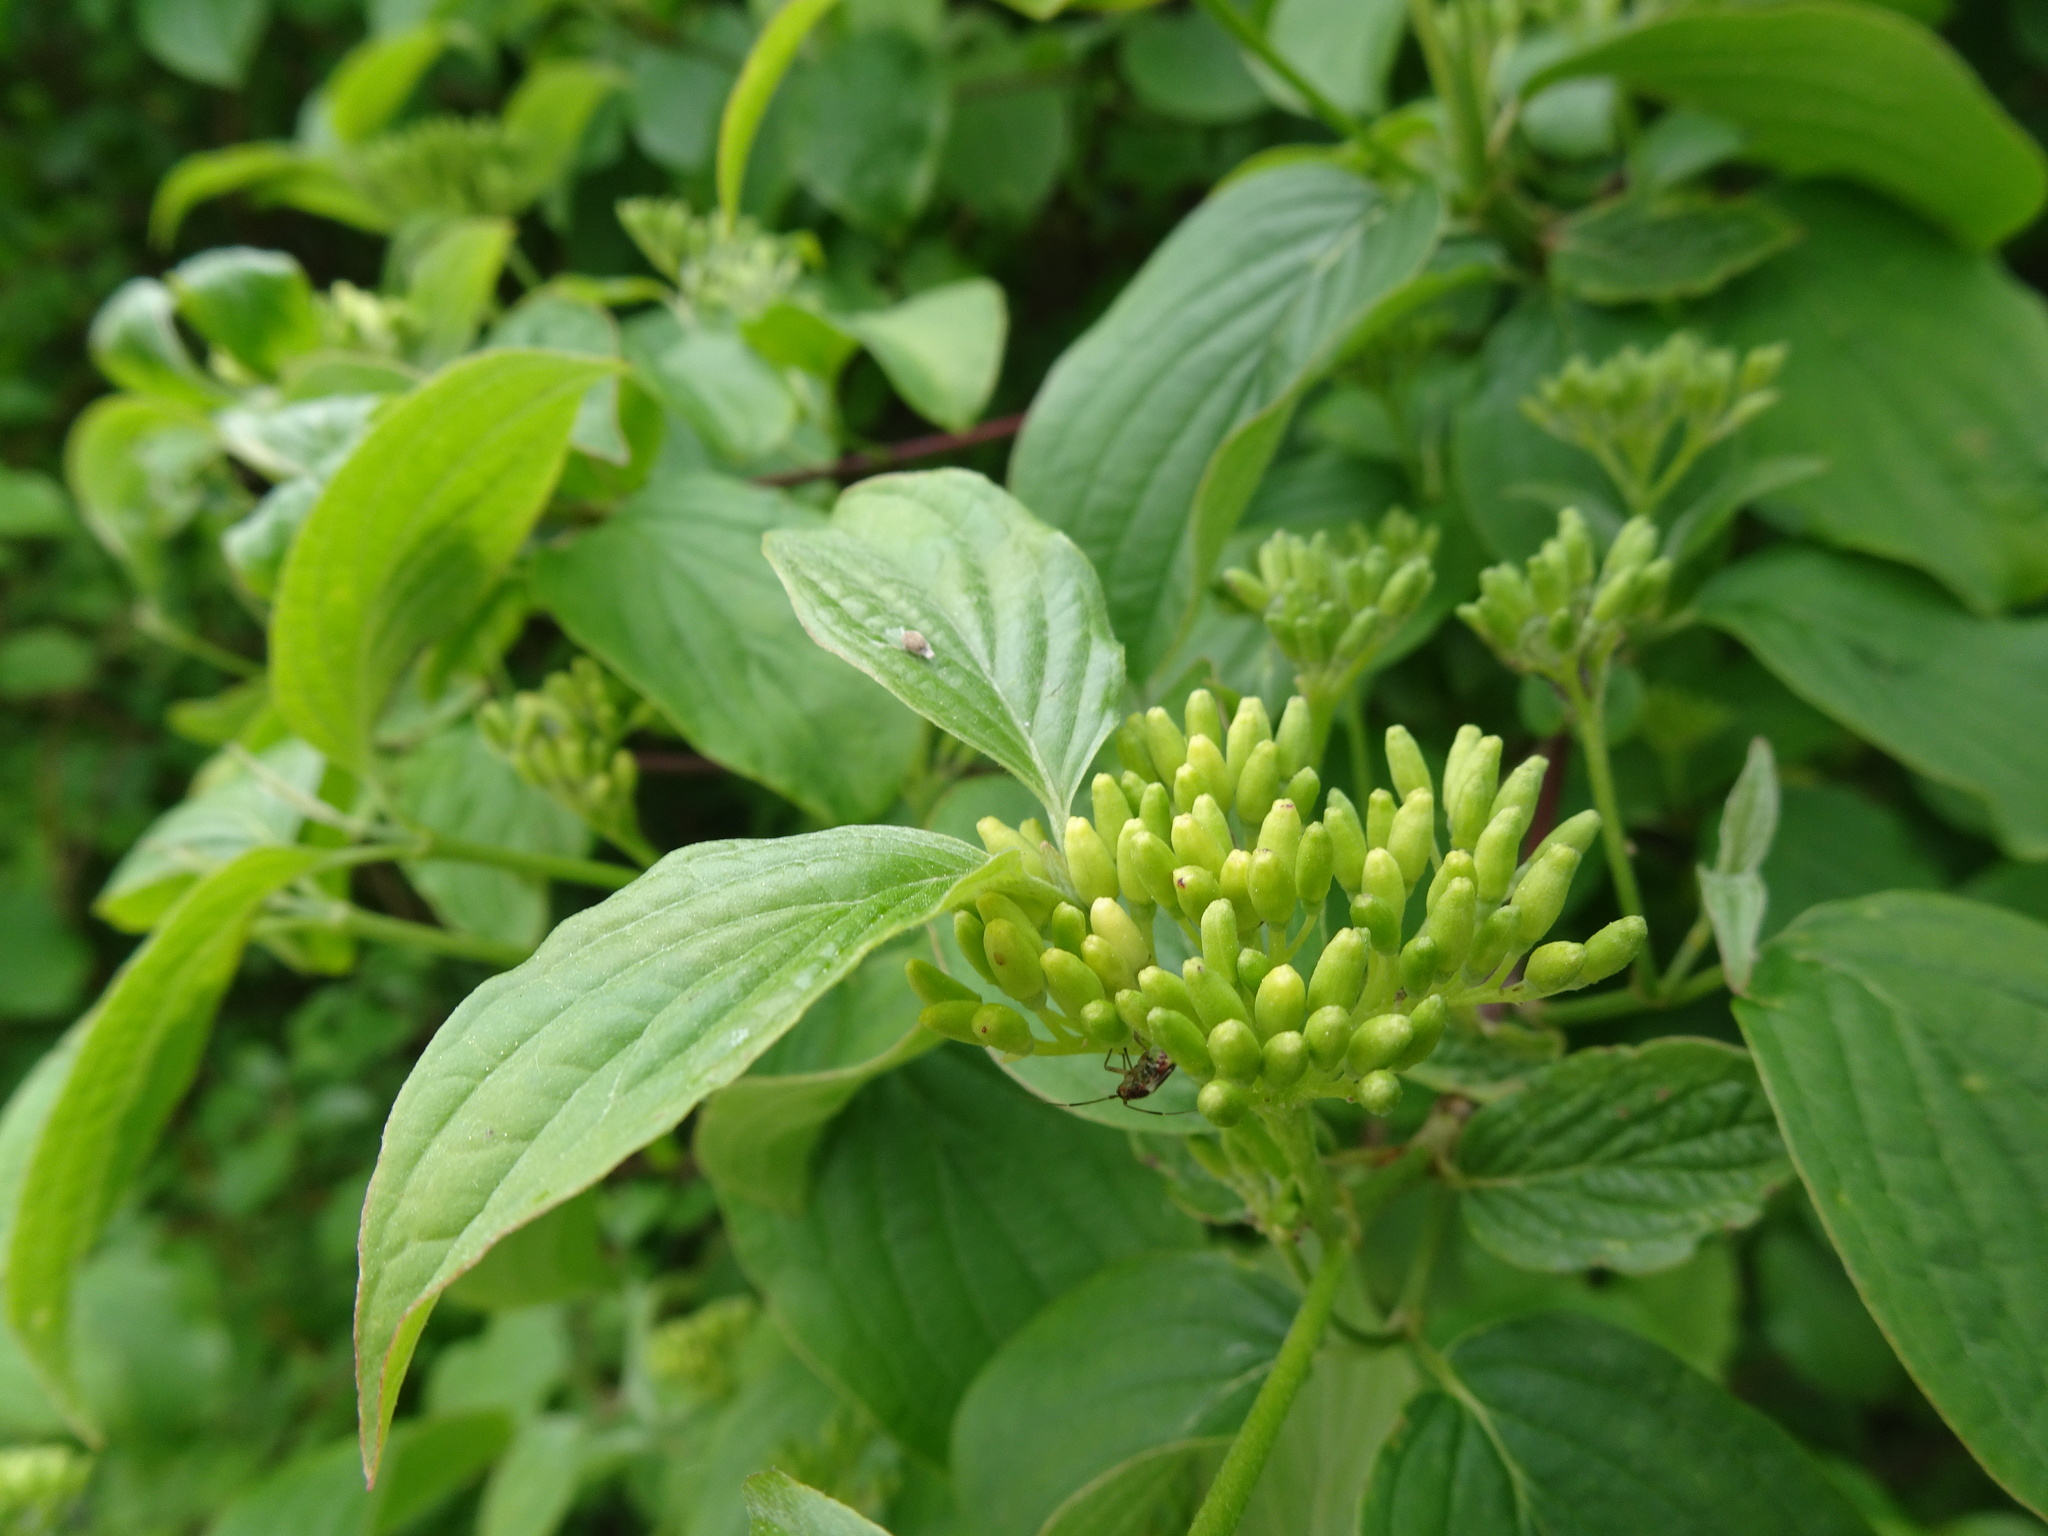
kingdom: Plantae
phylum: Tracheophyta
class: Magnoliopsida
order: Cornales
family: Cornaceae
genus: Cornus
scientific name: Cornus sanguinea
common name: Dogwood
